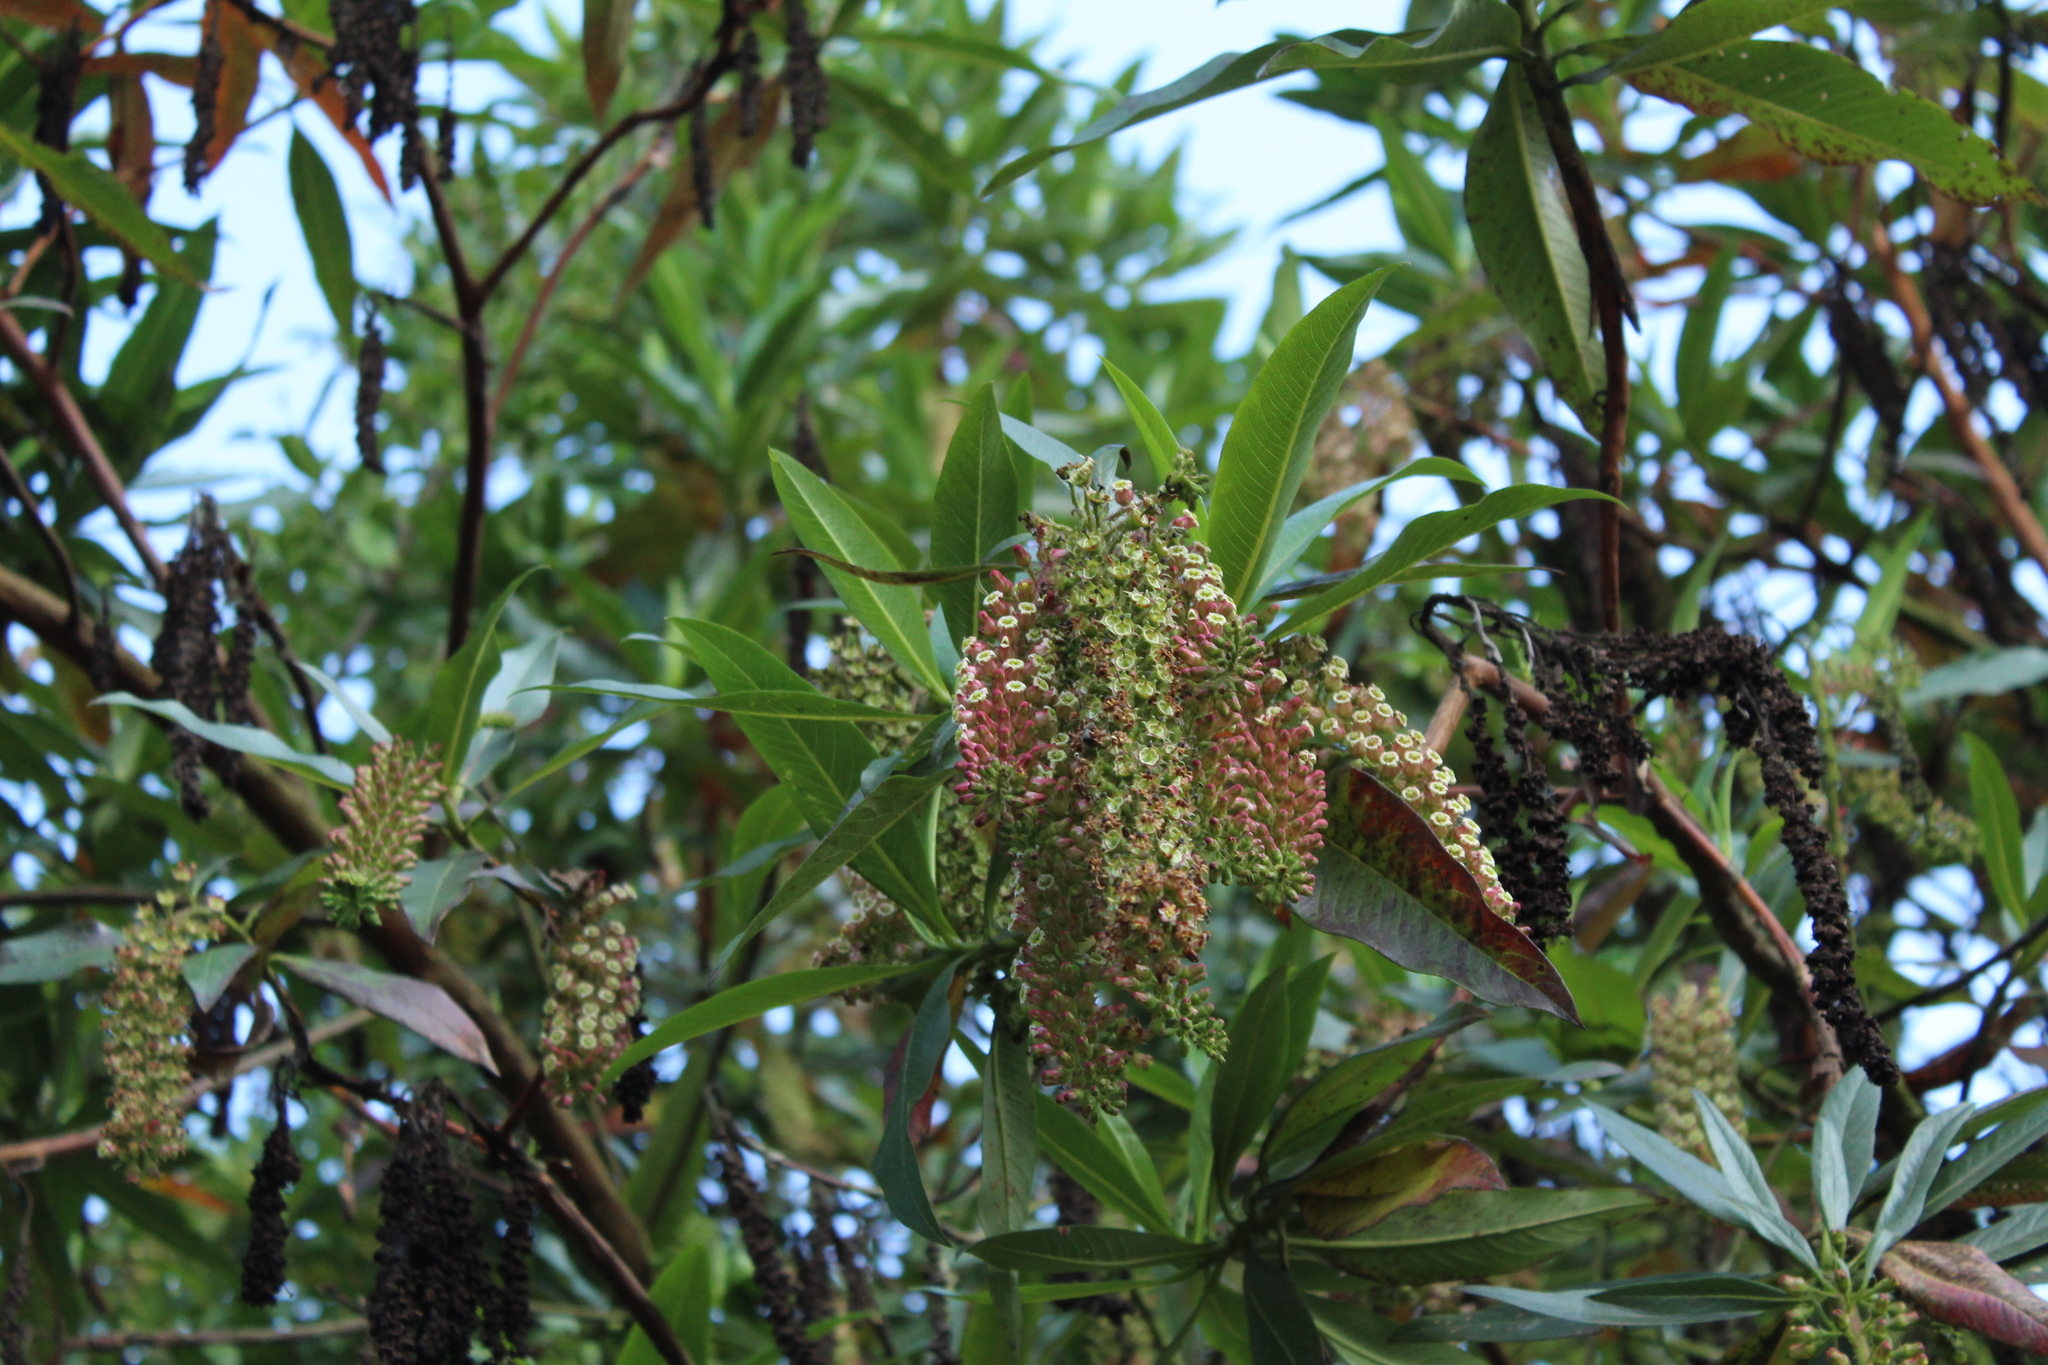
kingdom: Plantae
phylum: Tracheophyta
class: Magnoliopsida
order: Escalloniales
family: Escalloniaceae
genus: Escallonia
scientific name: Escallonia pendula
